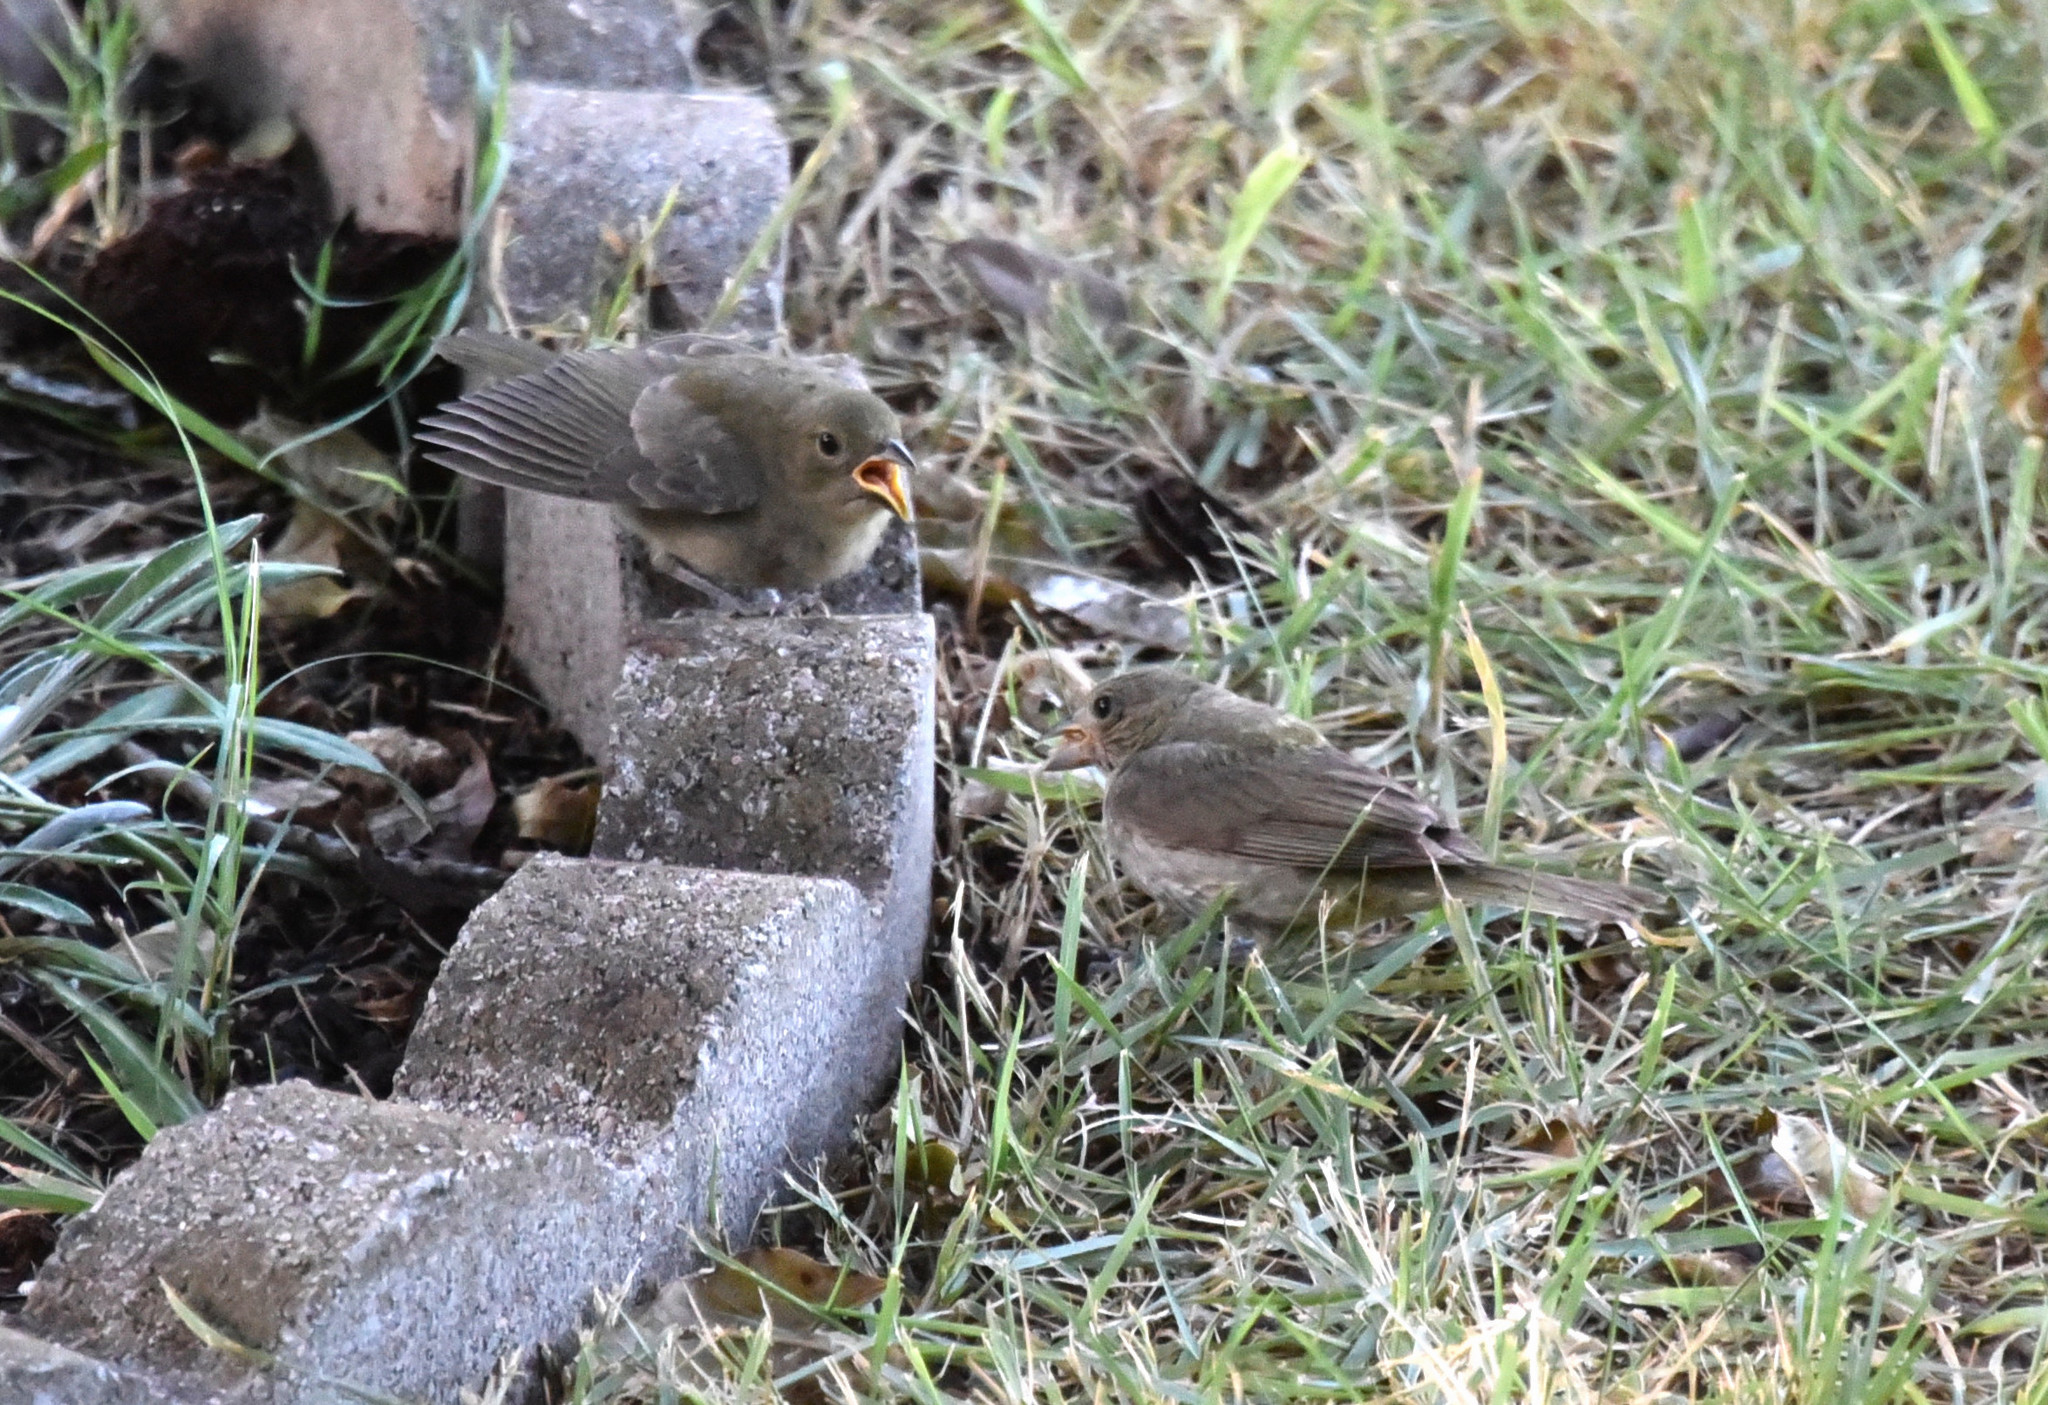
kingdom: Animalia
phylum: Chordata
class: Aves
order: Passeriformes
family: Cardinalidae
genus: Passerina
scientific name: Passerina ciris
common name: Painted bunting
